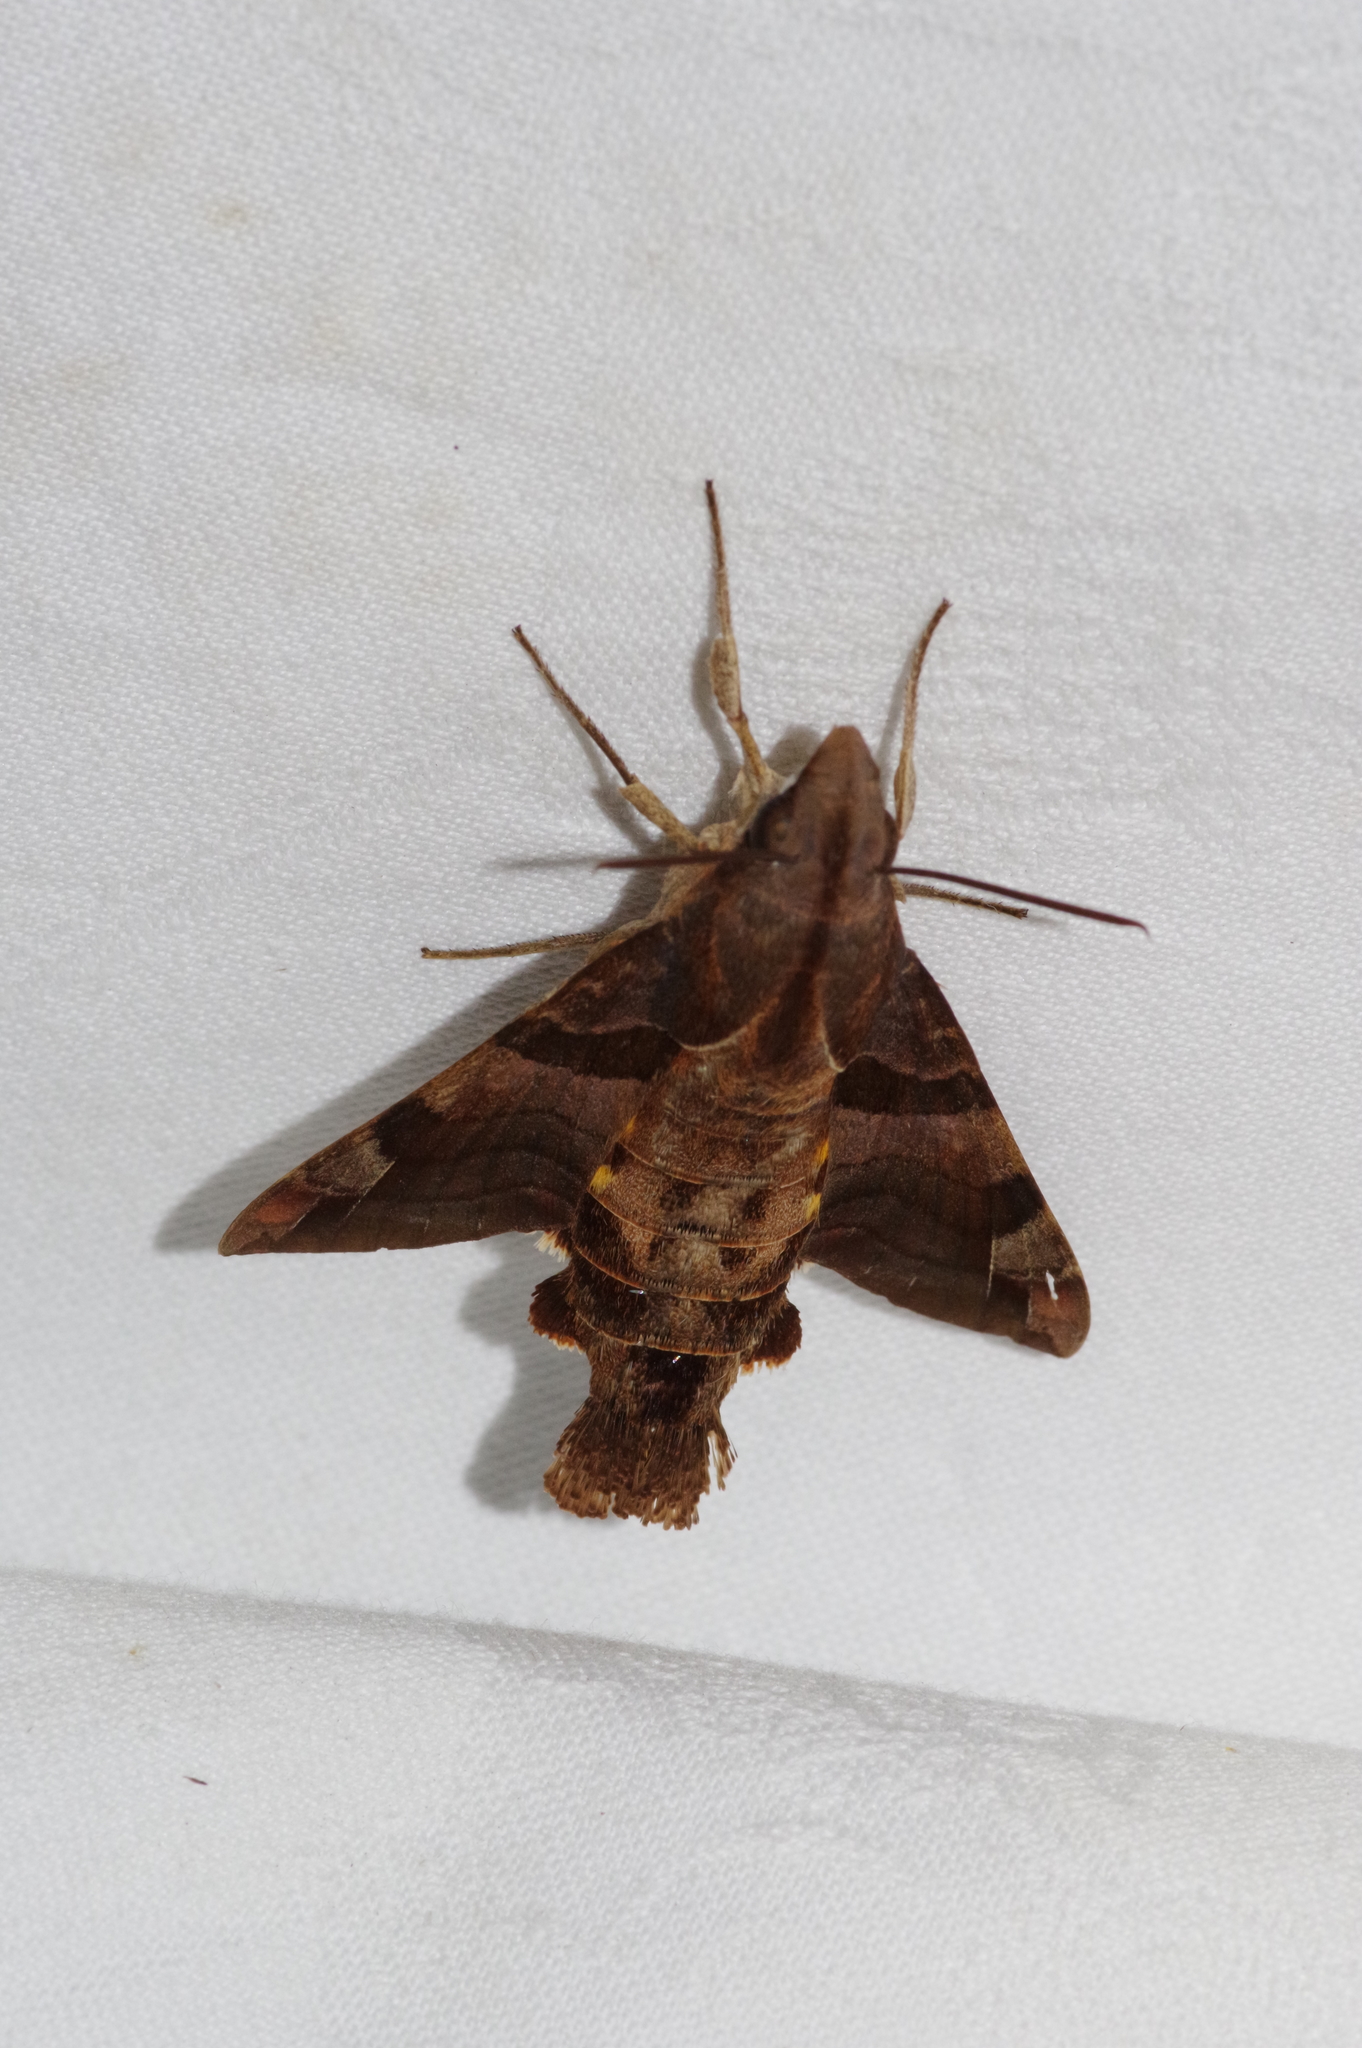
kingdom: Animalia
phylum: Arthropoda
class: Insecta
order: Lepidoptera
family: Sphingidae
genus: Macroglossum
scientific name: Macroglossum saga
